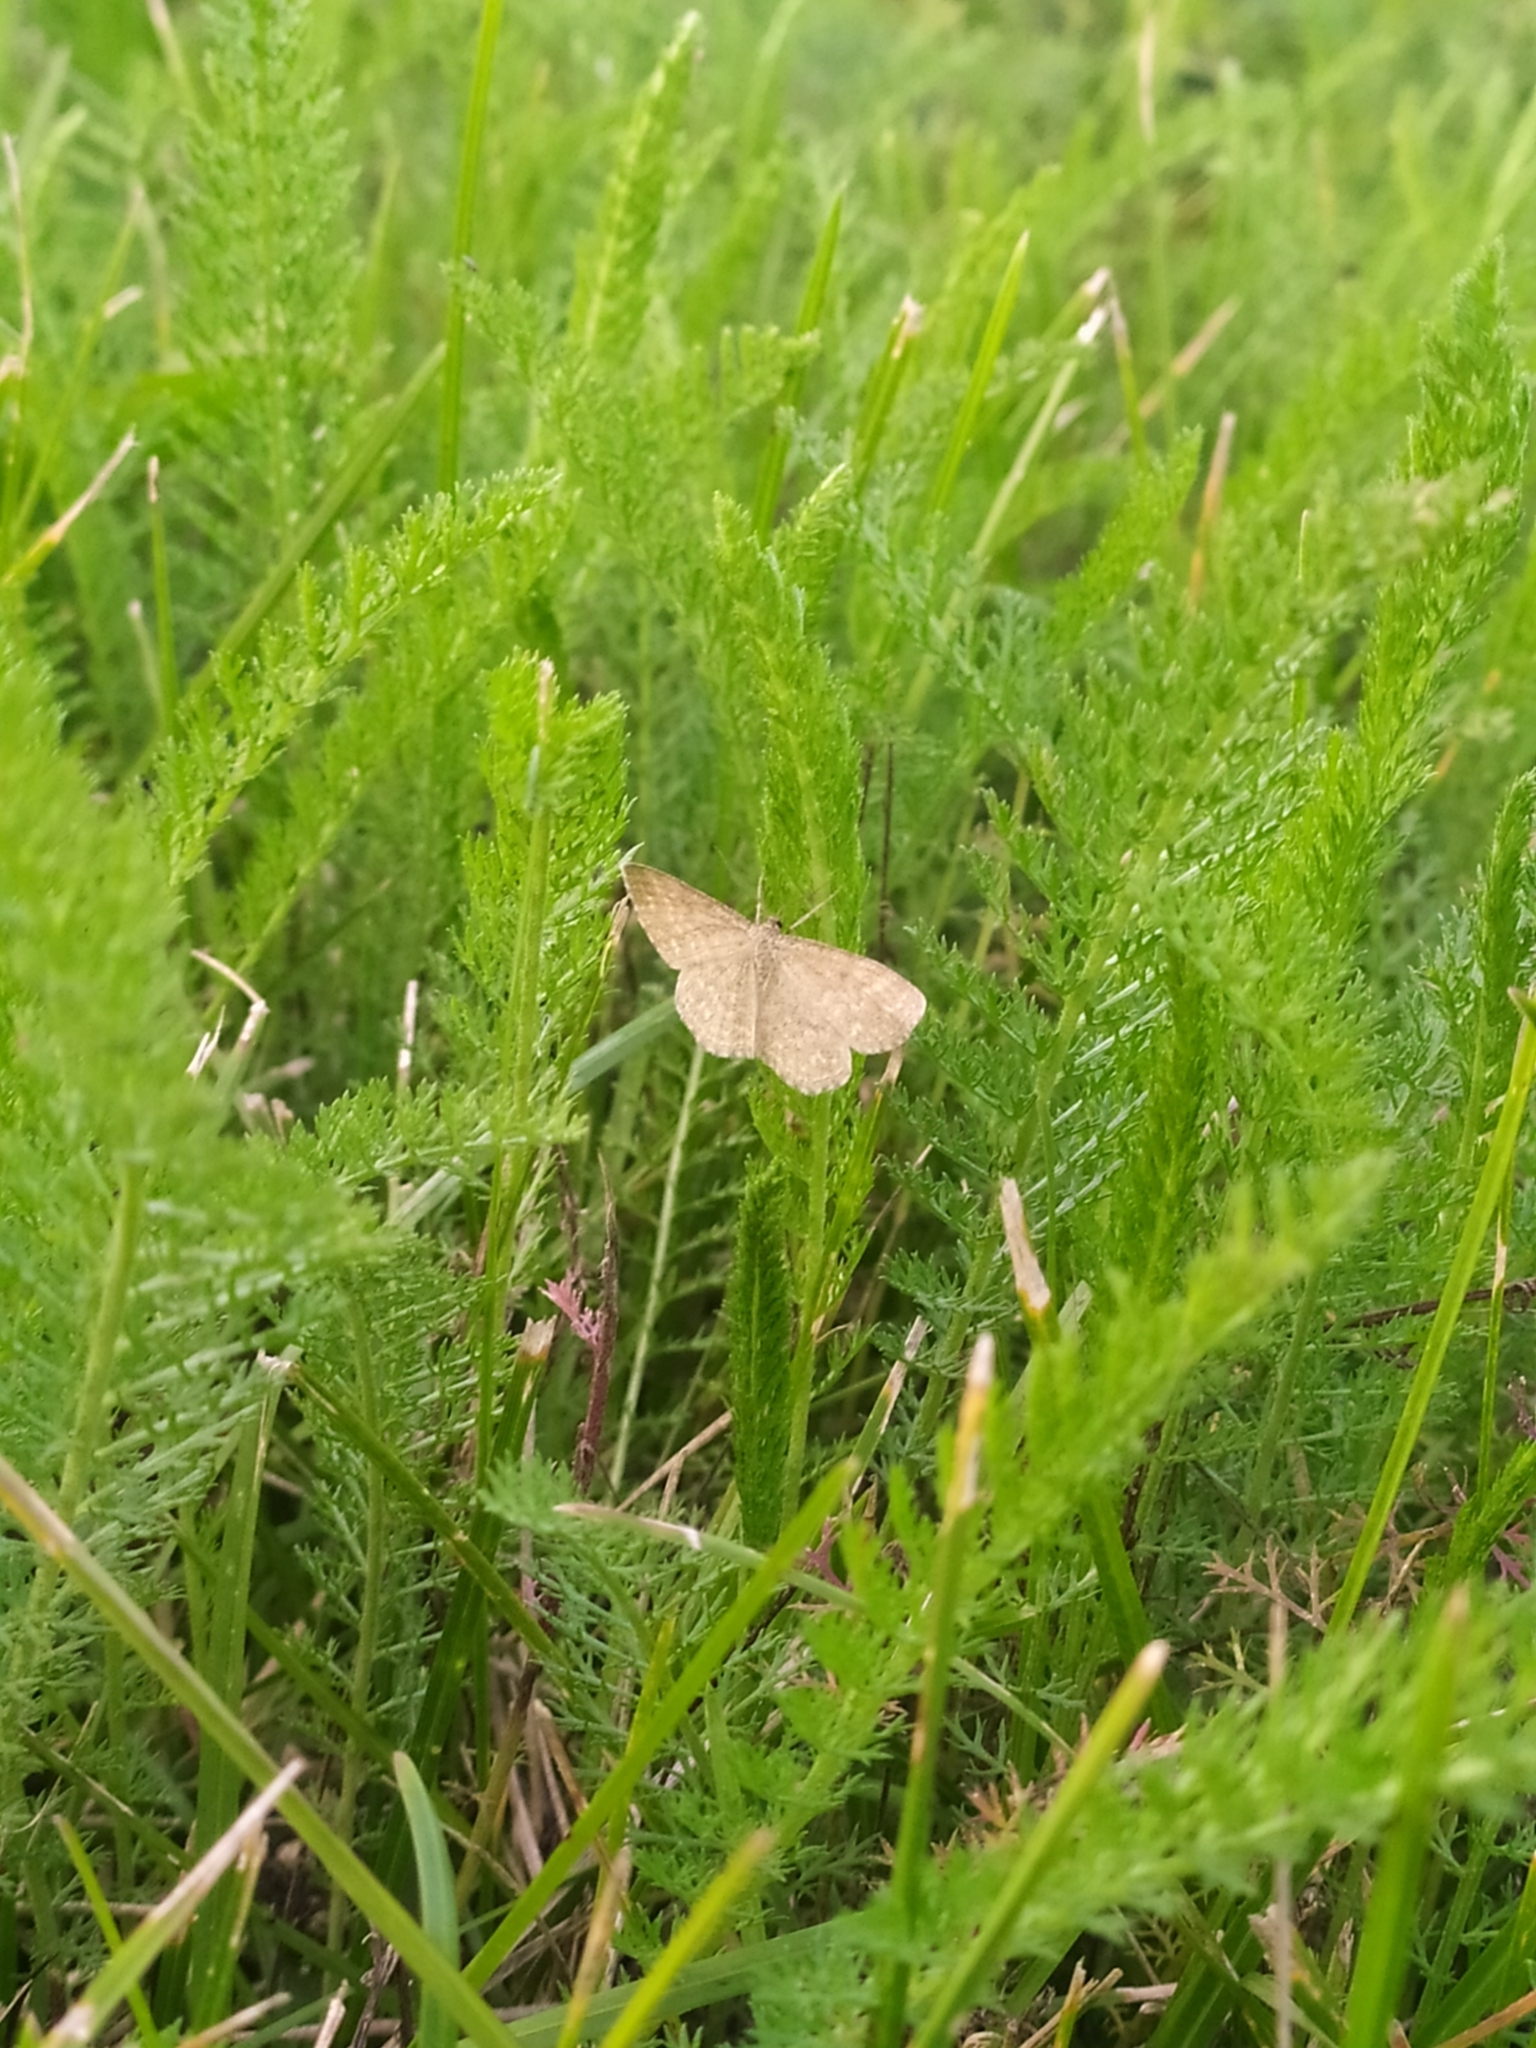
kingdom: Animalia
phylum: Arthropoda
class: Insecta
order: Lepidoptera
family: Geometridae
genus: Scopula
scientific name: Scopula immorata
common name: Lewes wave
